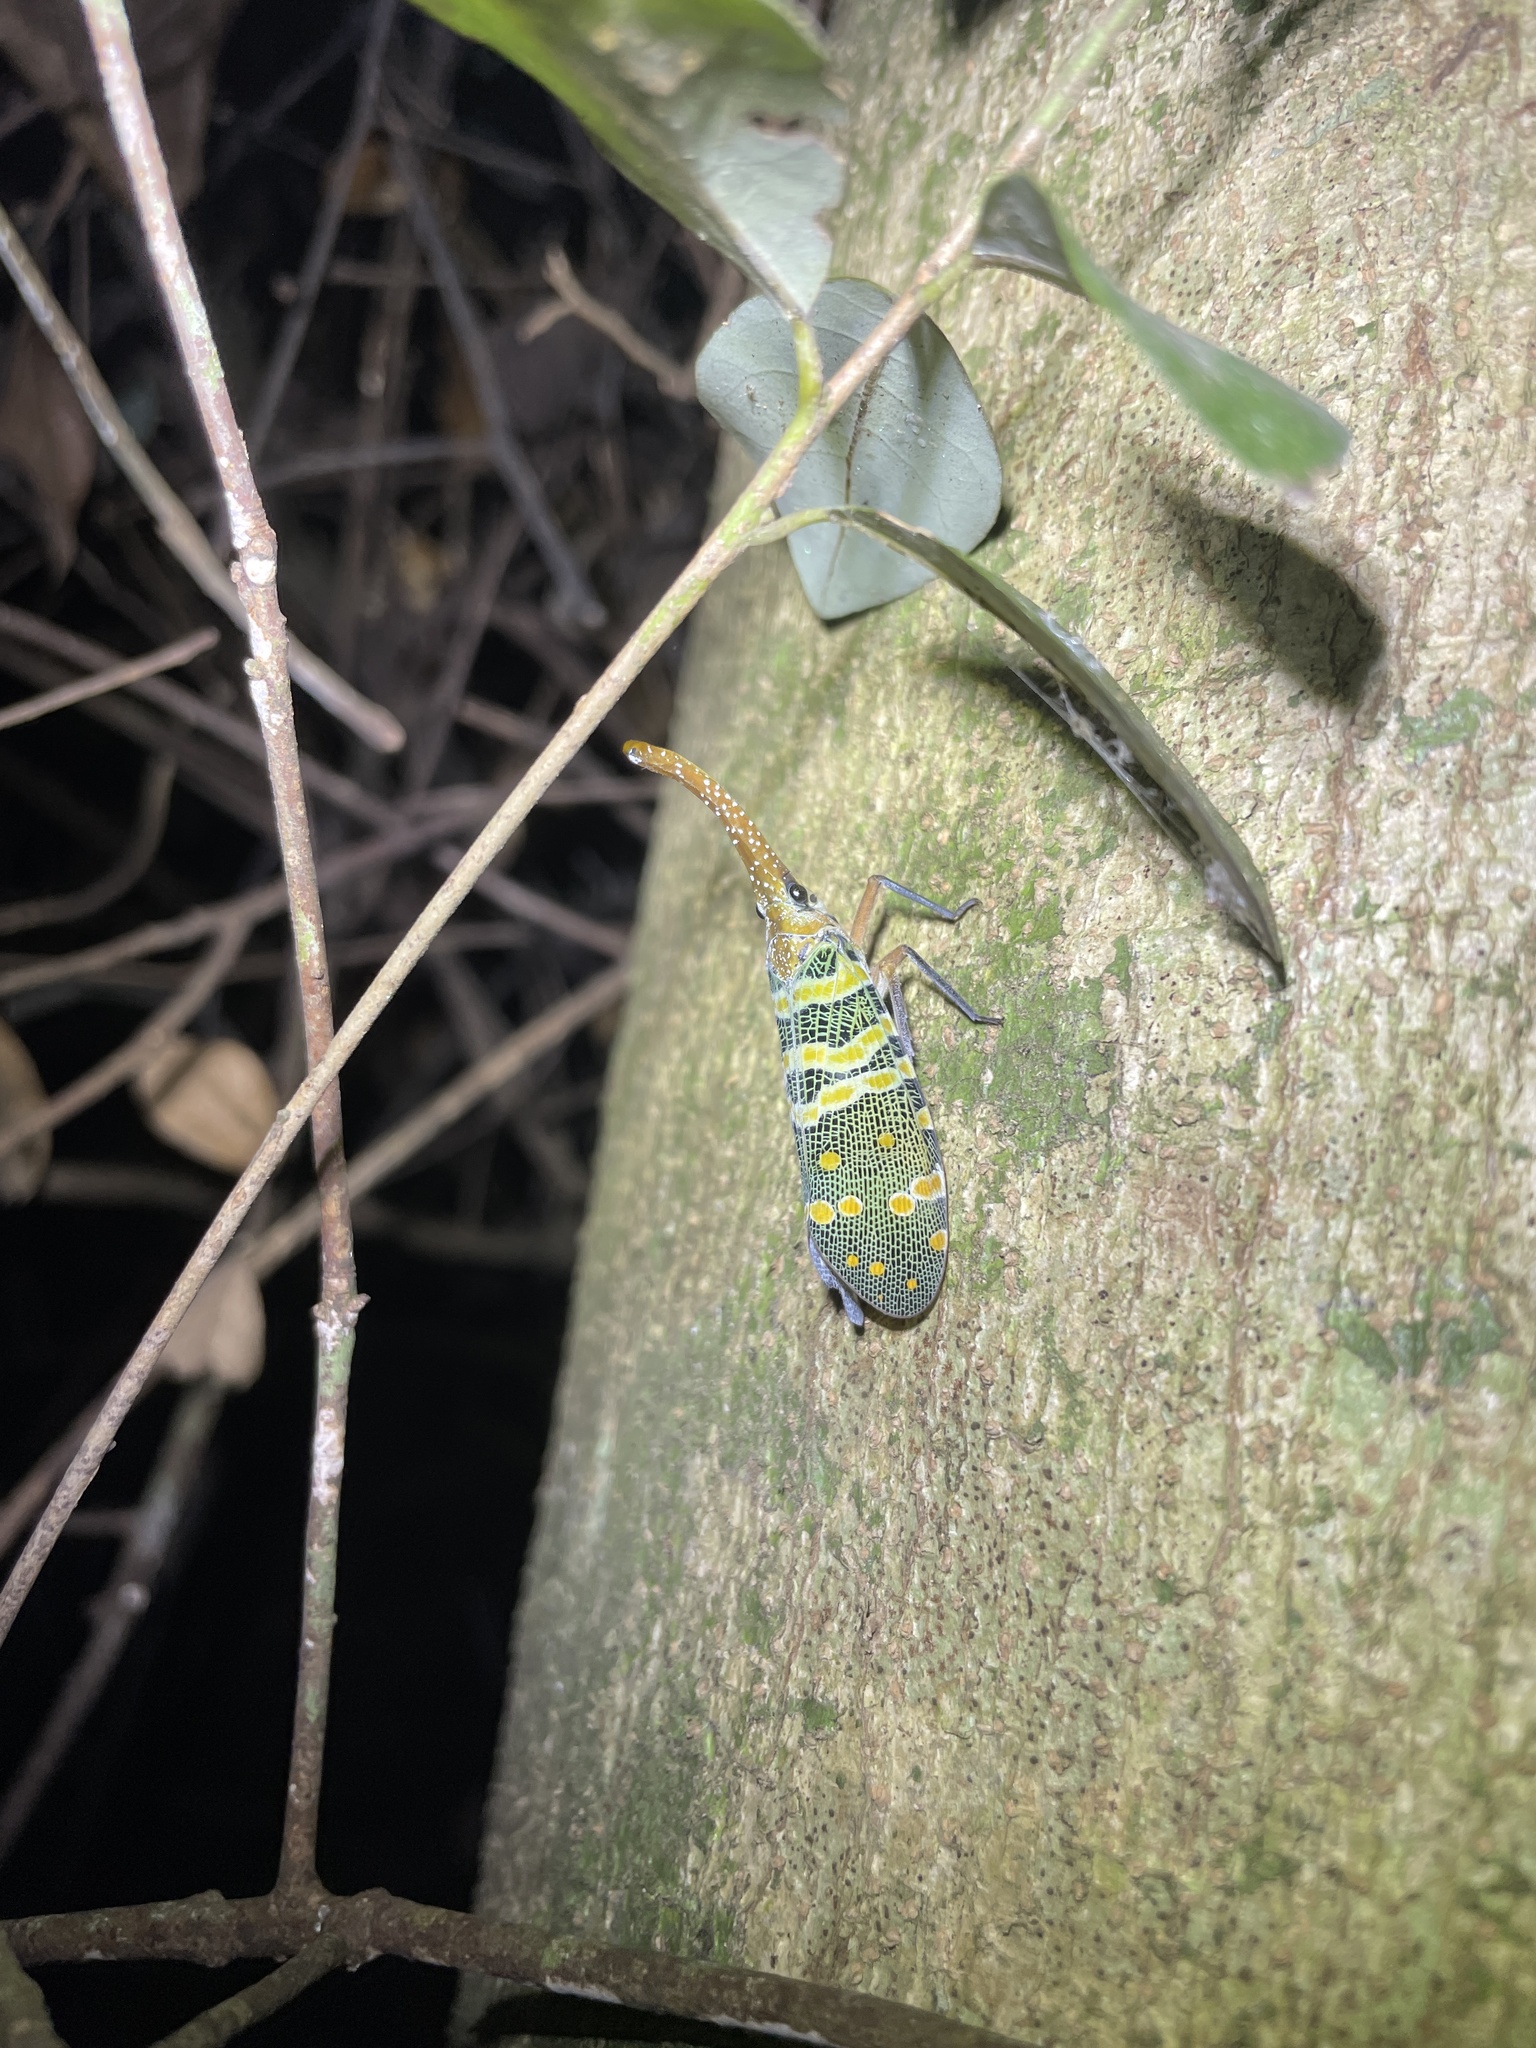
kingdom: Animalia
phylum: Arthropoda
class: Insecta
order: Hemiptera
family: Fulgoridae
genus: Pyrops
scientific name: Pyrops candelaria
